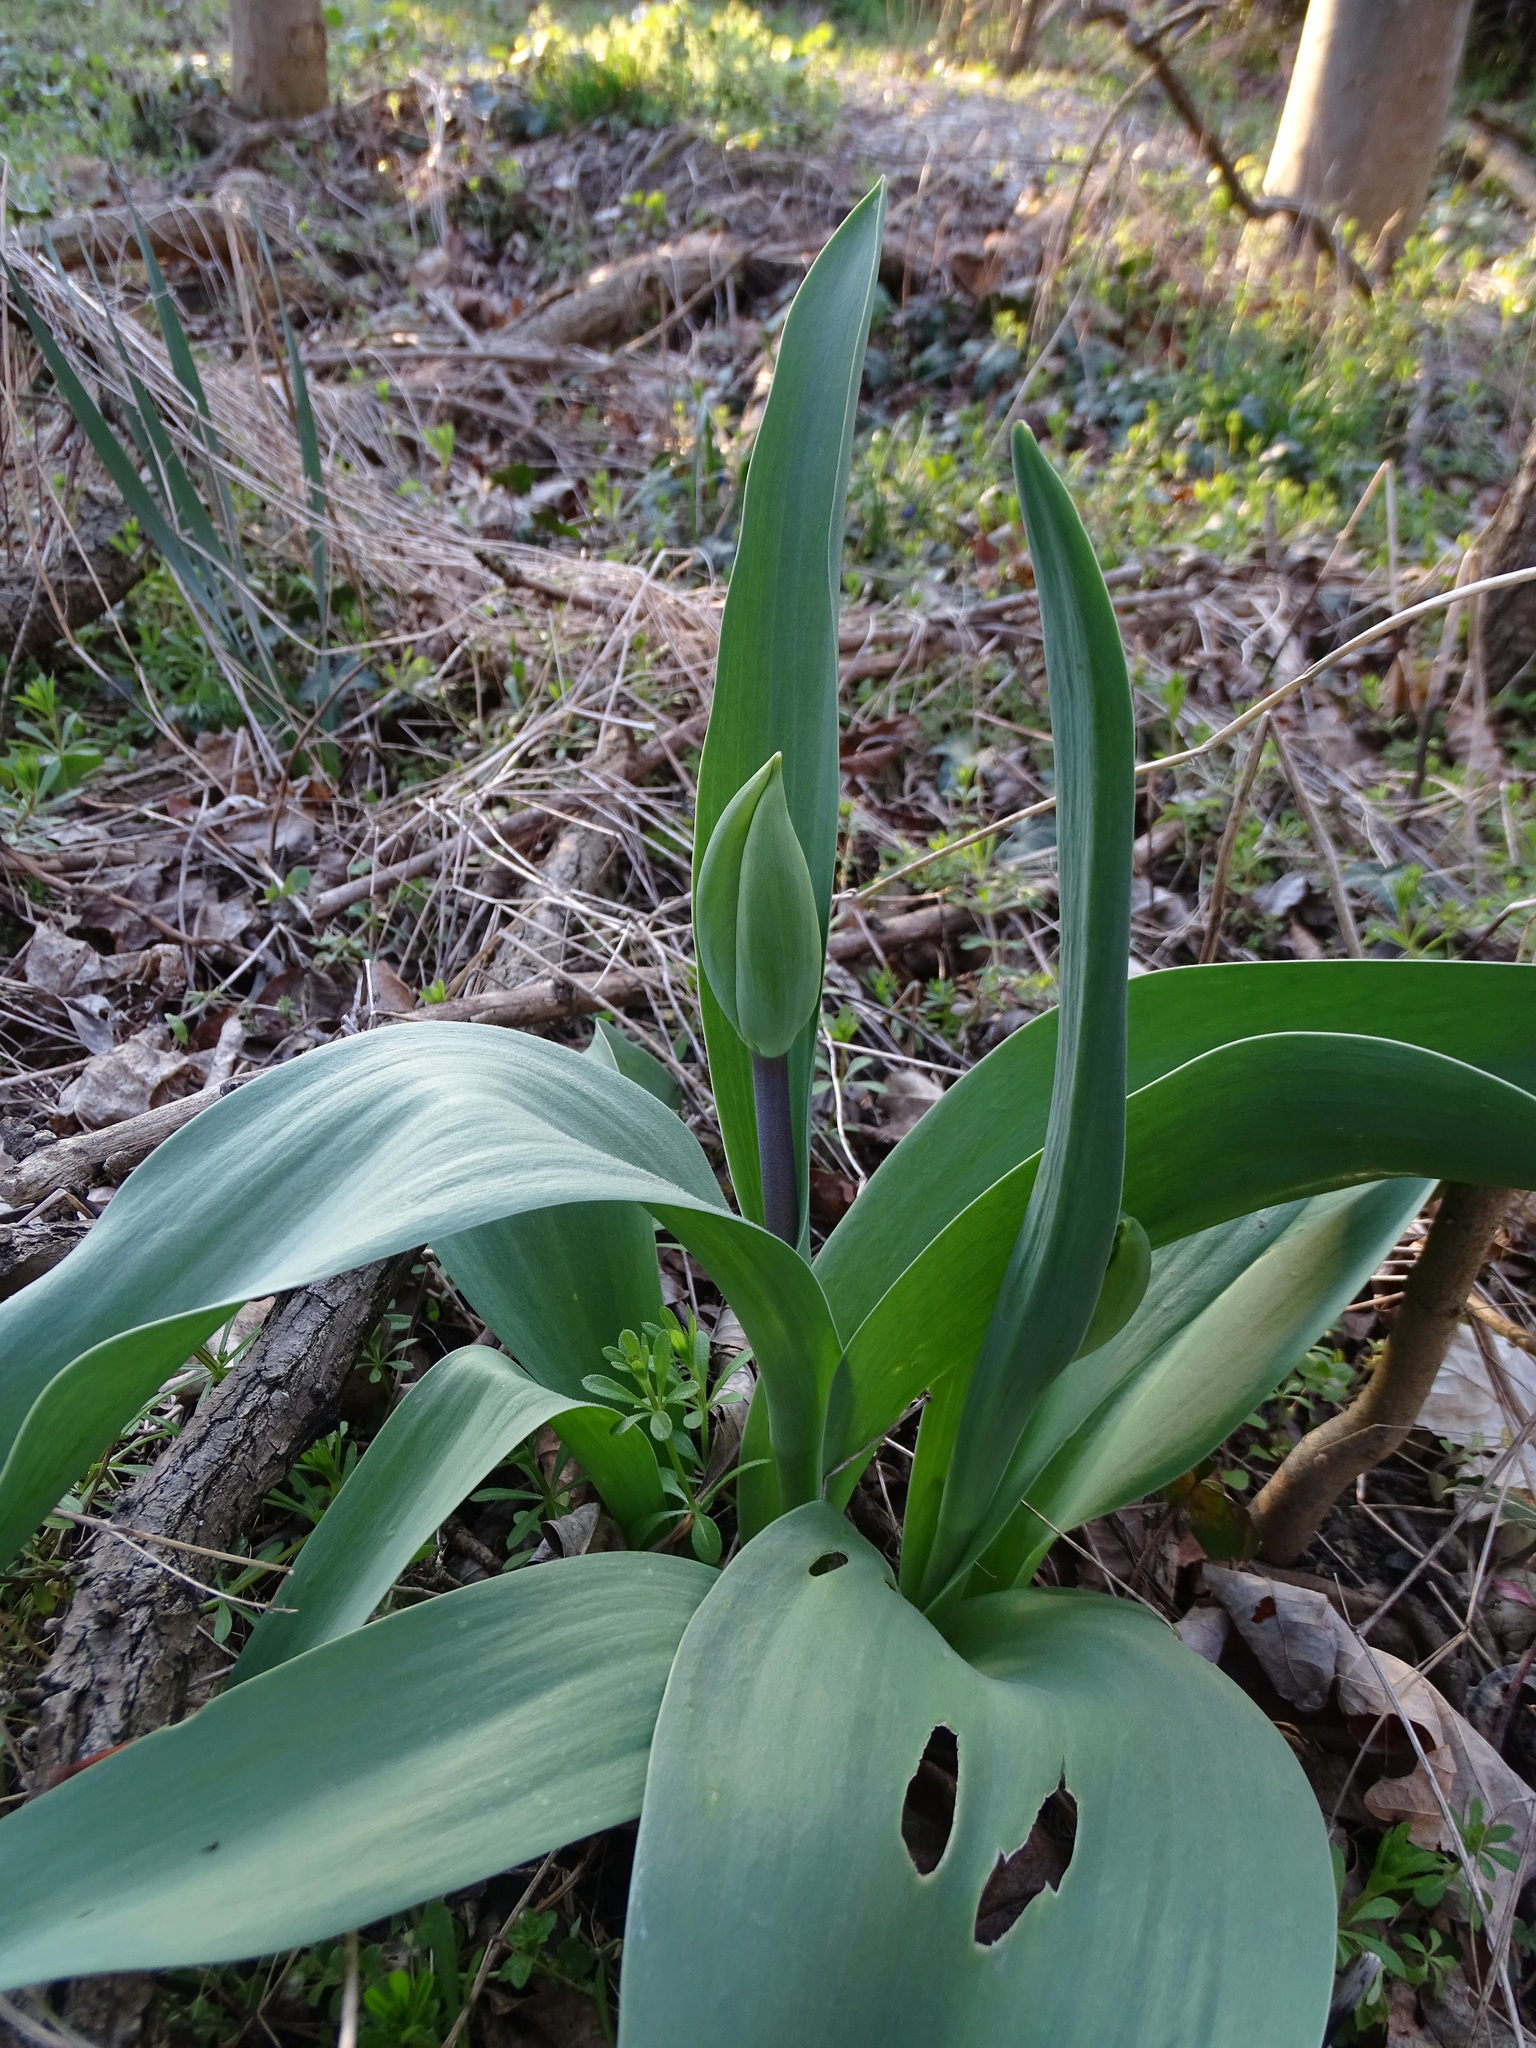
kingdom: Plantae
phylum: Tracheophyta
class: Liliopsida
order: Liliales
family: Liliaceae
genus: Tulipa
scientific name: Tulipa gesneriana
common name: Garden tulip
